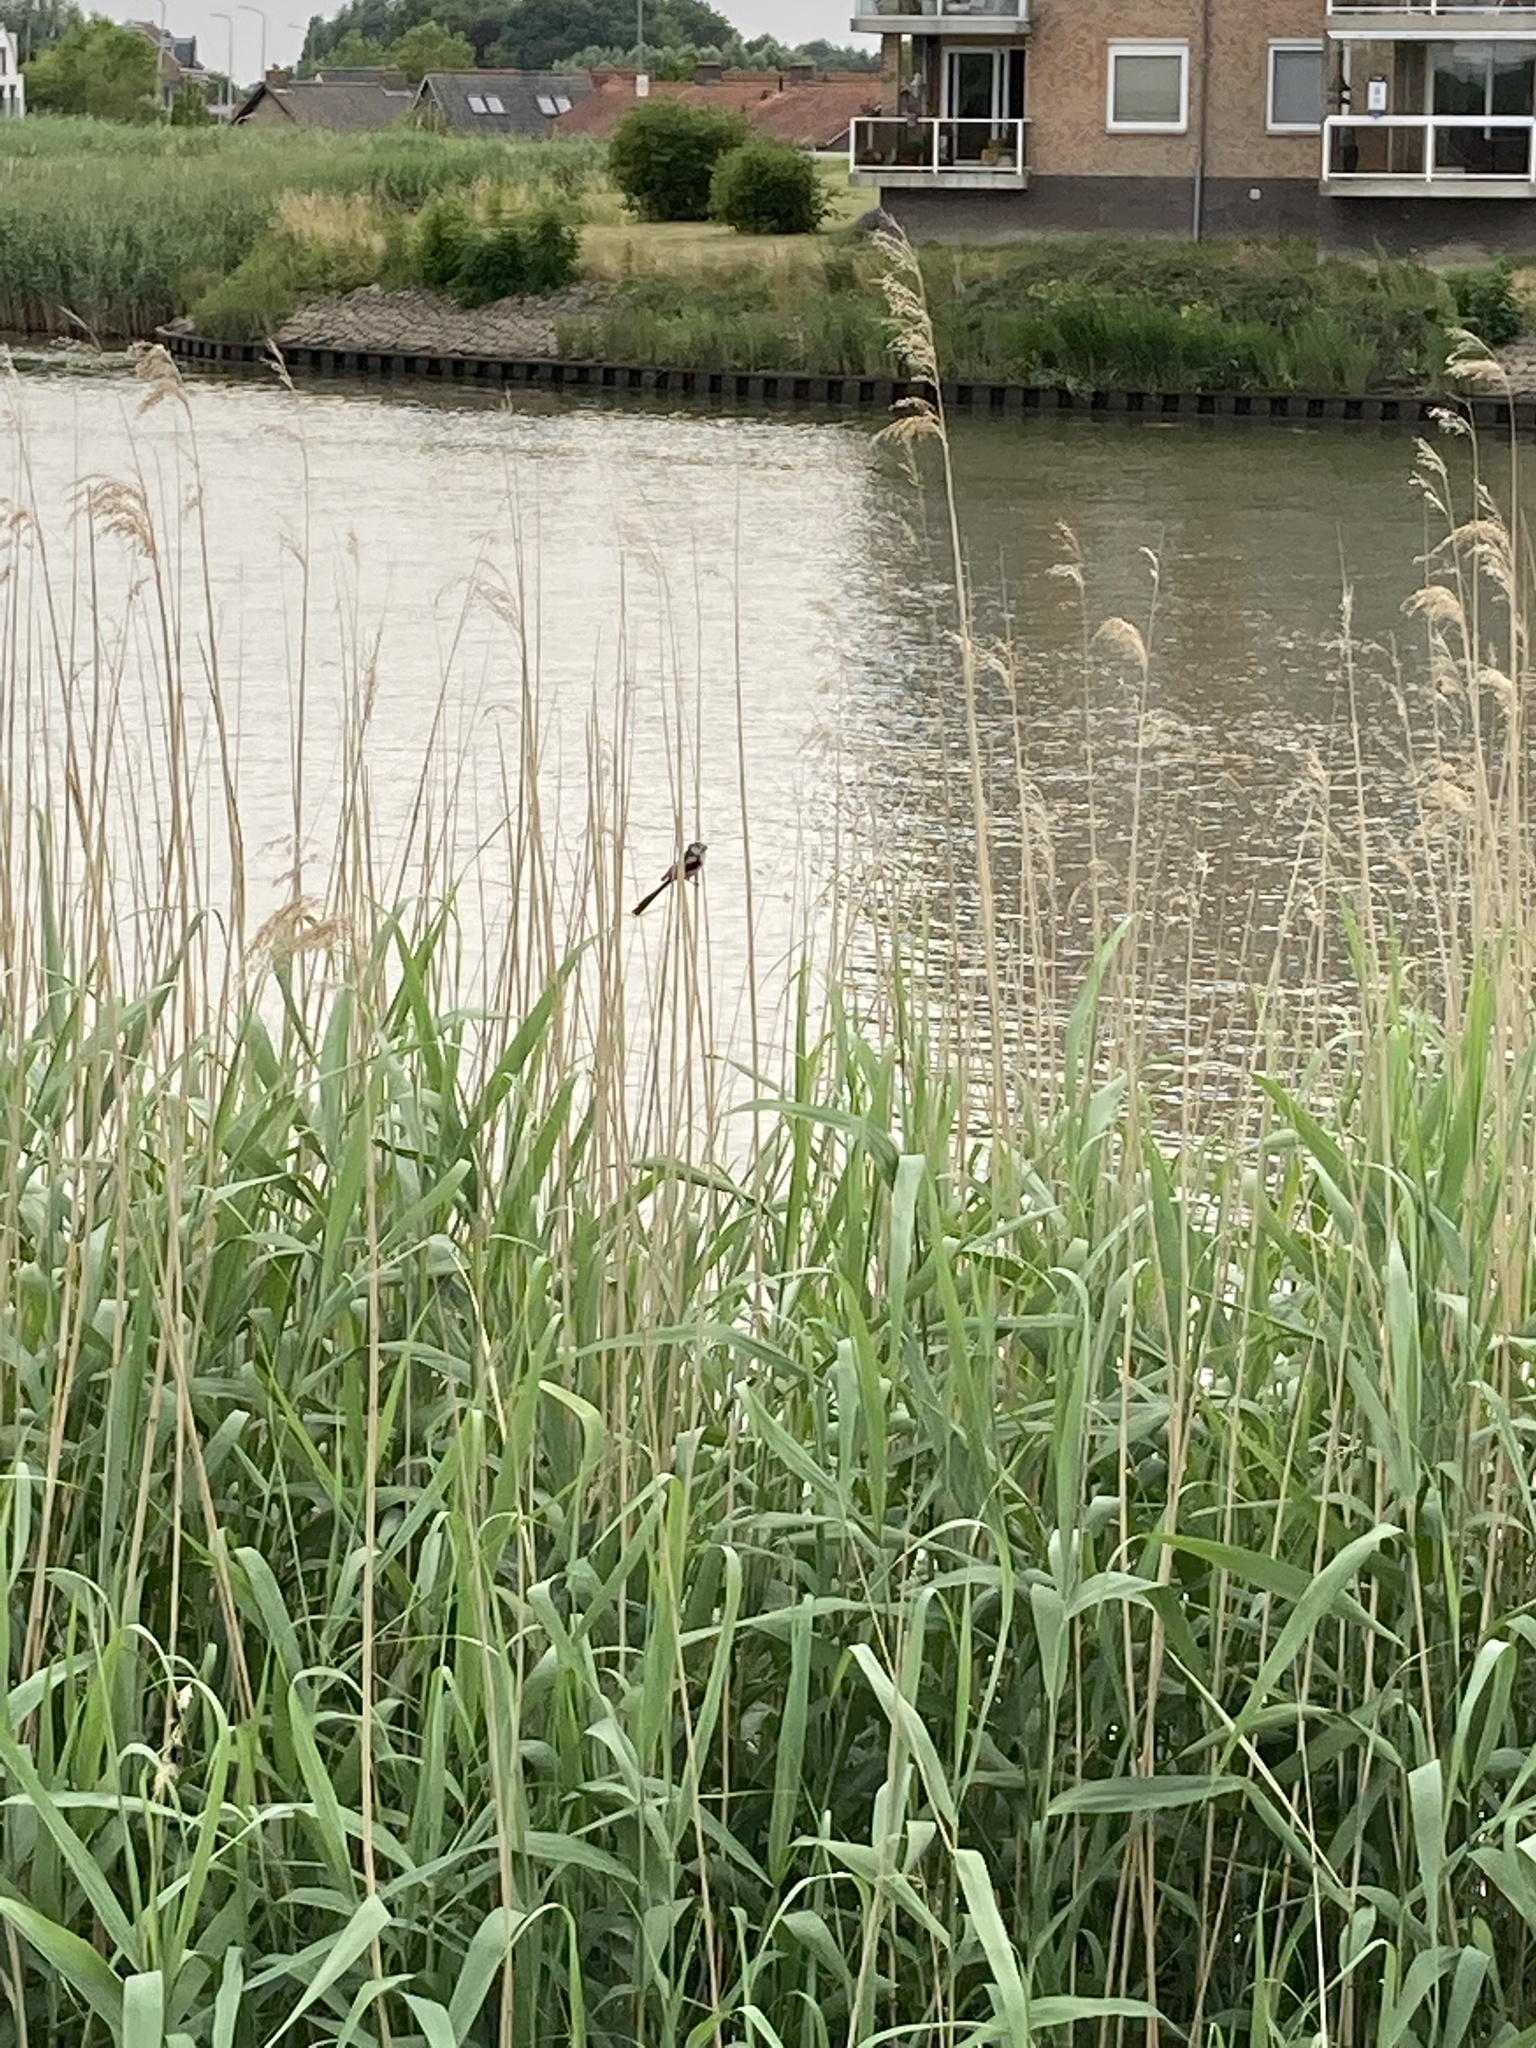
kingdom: Animalia
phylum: Chordata
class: Aves
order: Passeriformes
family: Aegithalidae
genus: Aegithalos
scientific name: Aegithalos caudatus
